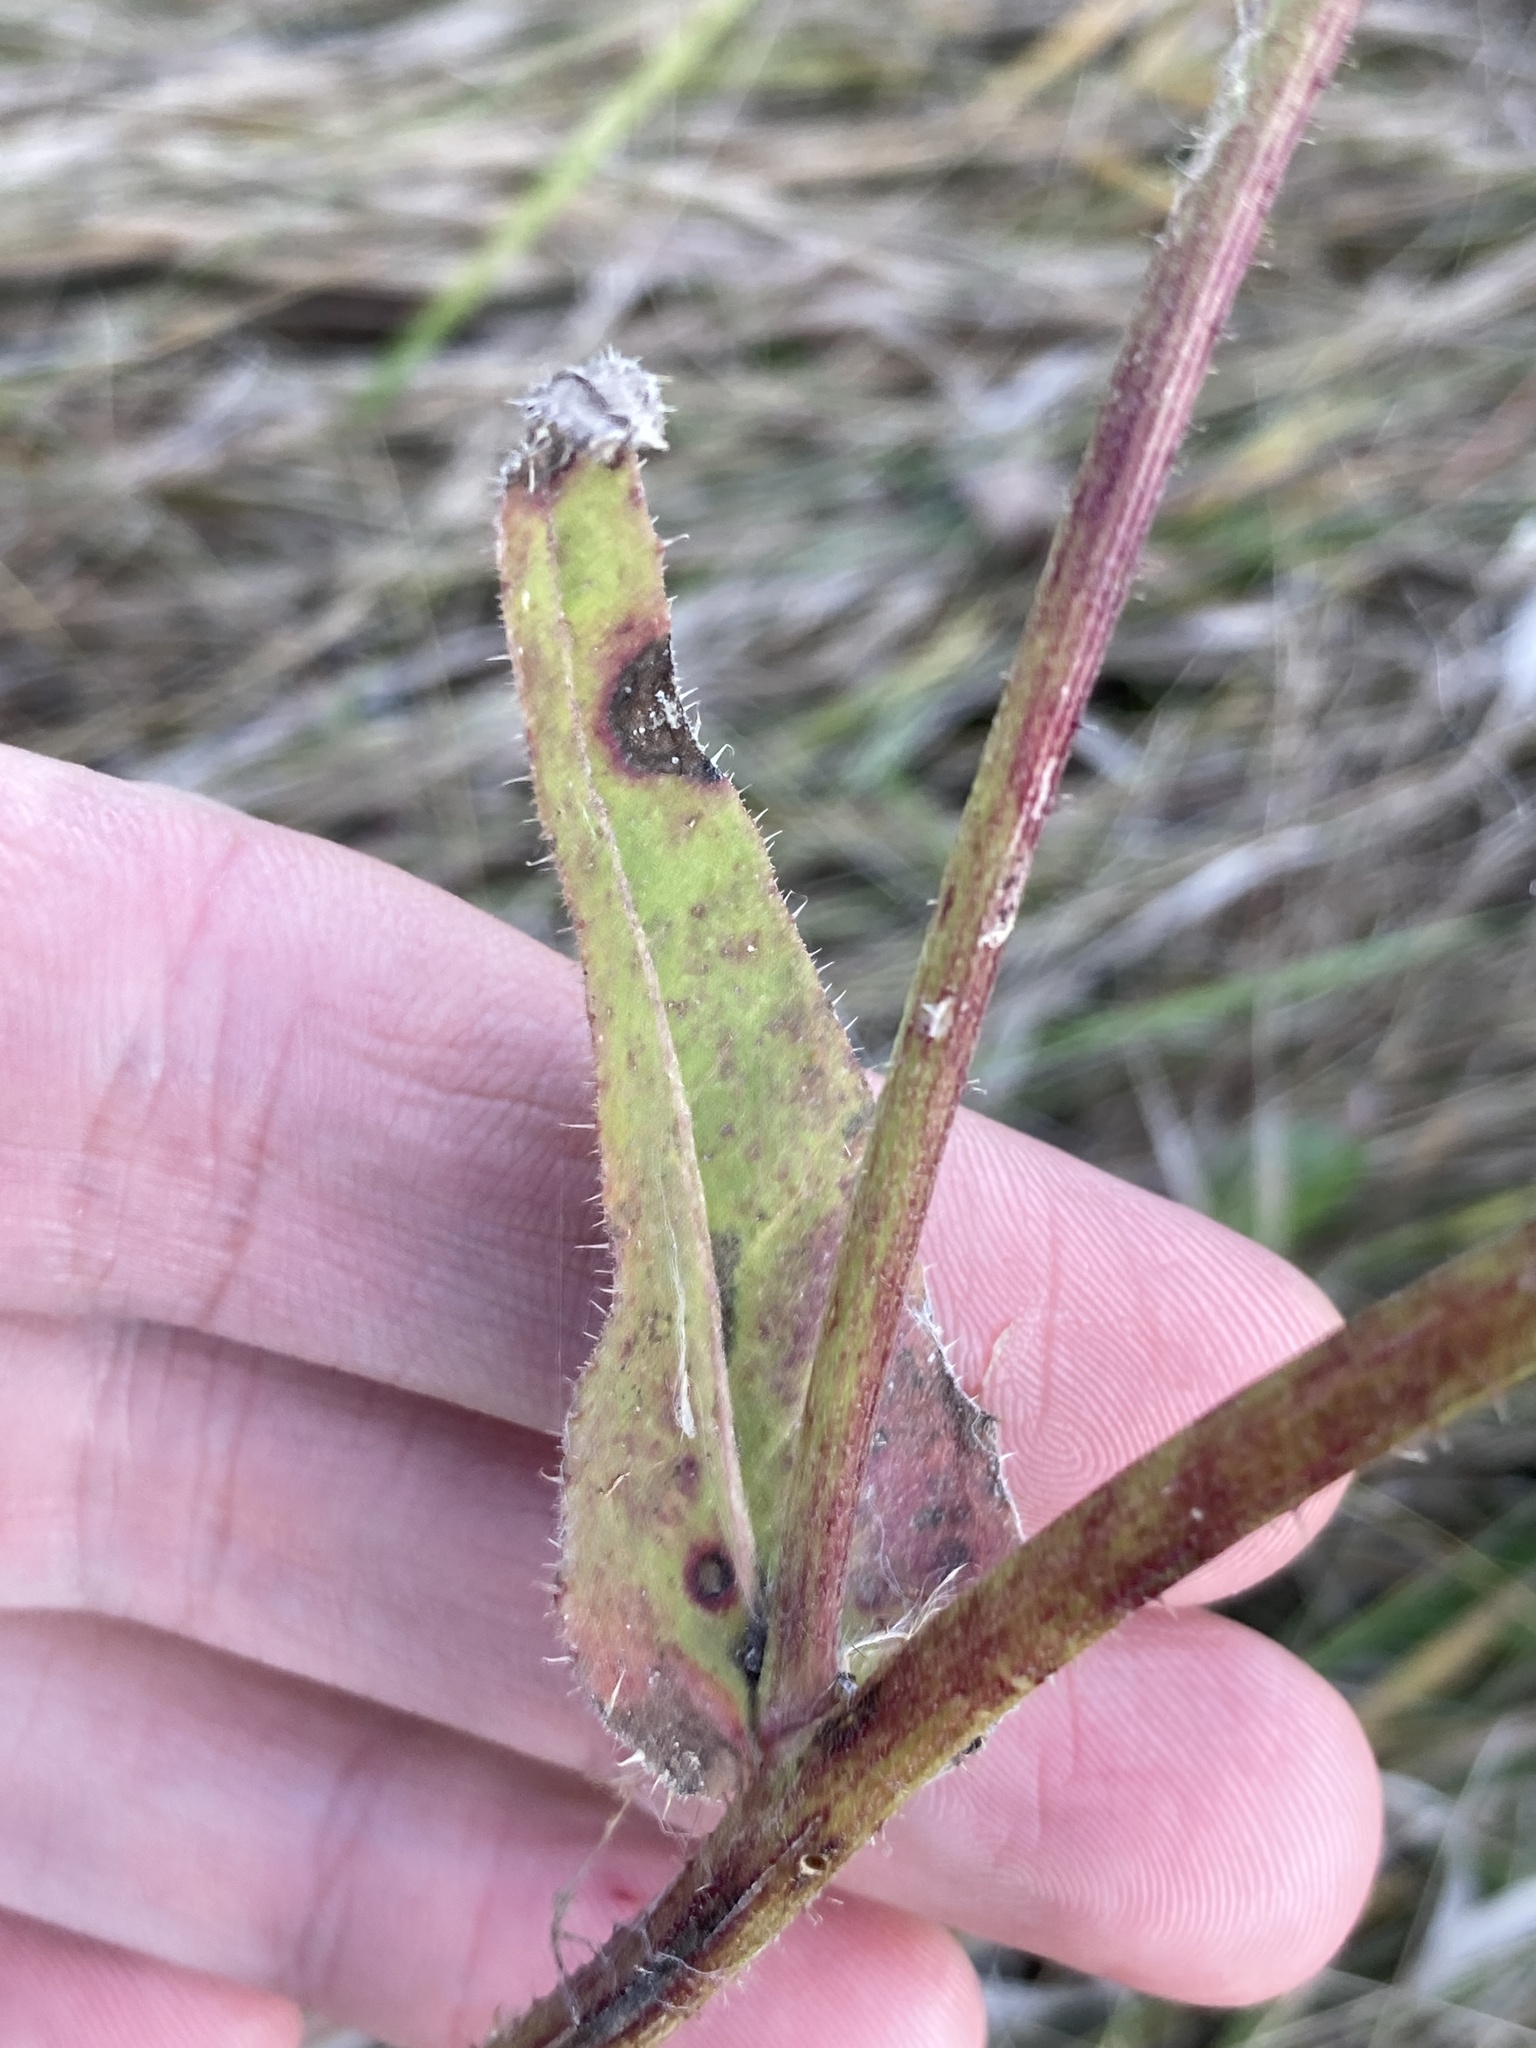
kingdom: Plantae
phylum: Tracheophyta
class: Magnoliopsida
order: Asterales
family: Asteraceae
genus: Picris
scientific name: Picris hieracioides
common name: Hawkweed oxtongue
